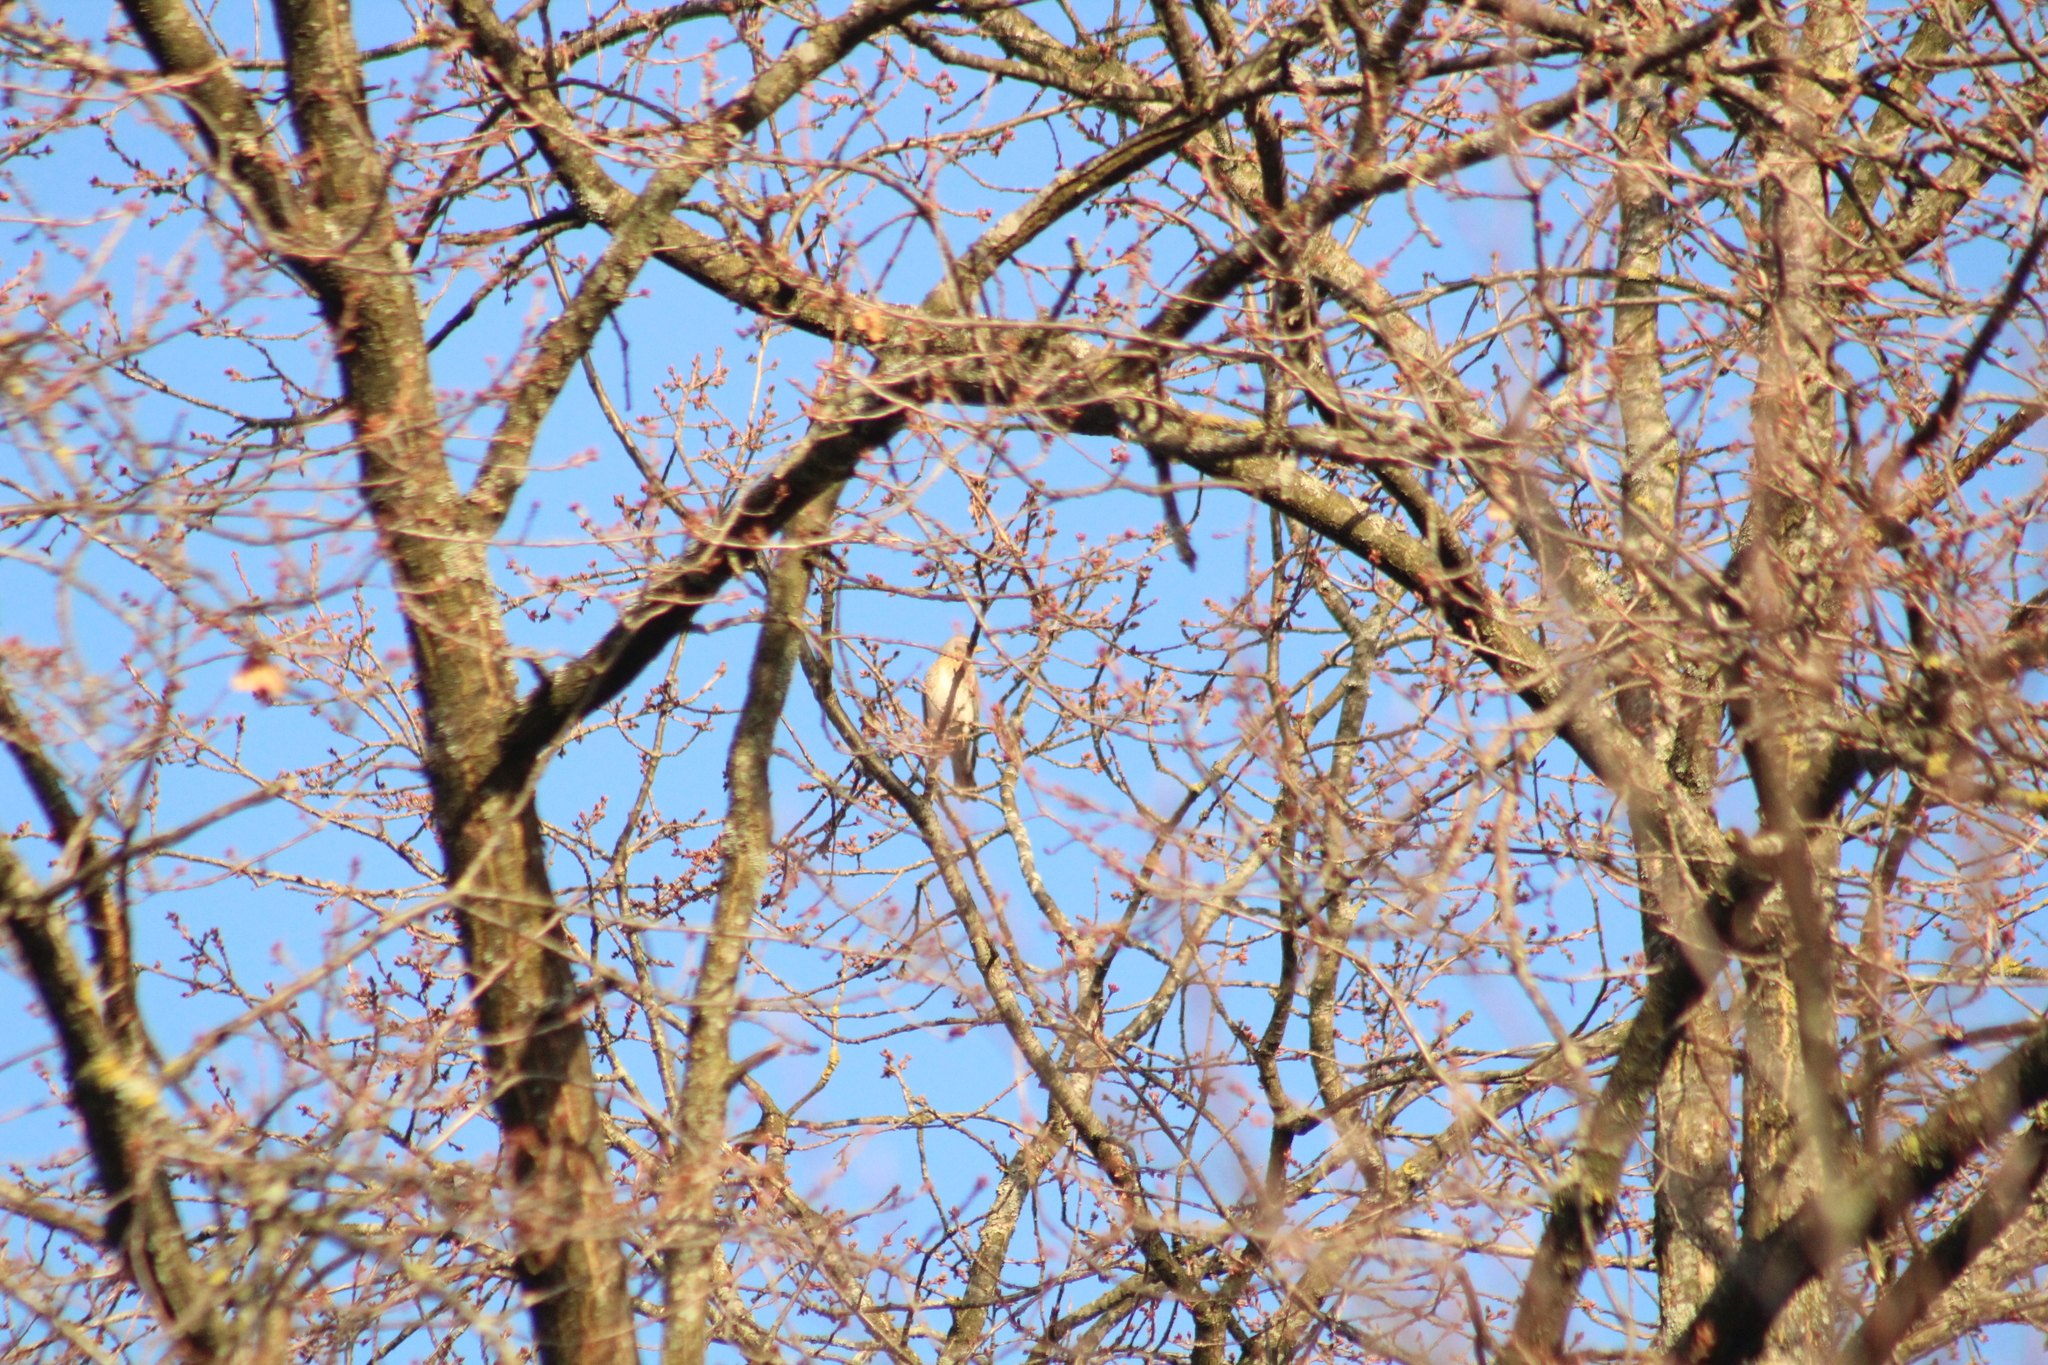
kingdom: Animalia
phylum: Chordata
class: Aves
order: Passeriformes
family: Turdidae
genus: Turdus
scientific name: Turdus pilaris
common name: Fieldfare
